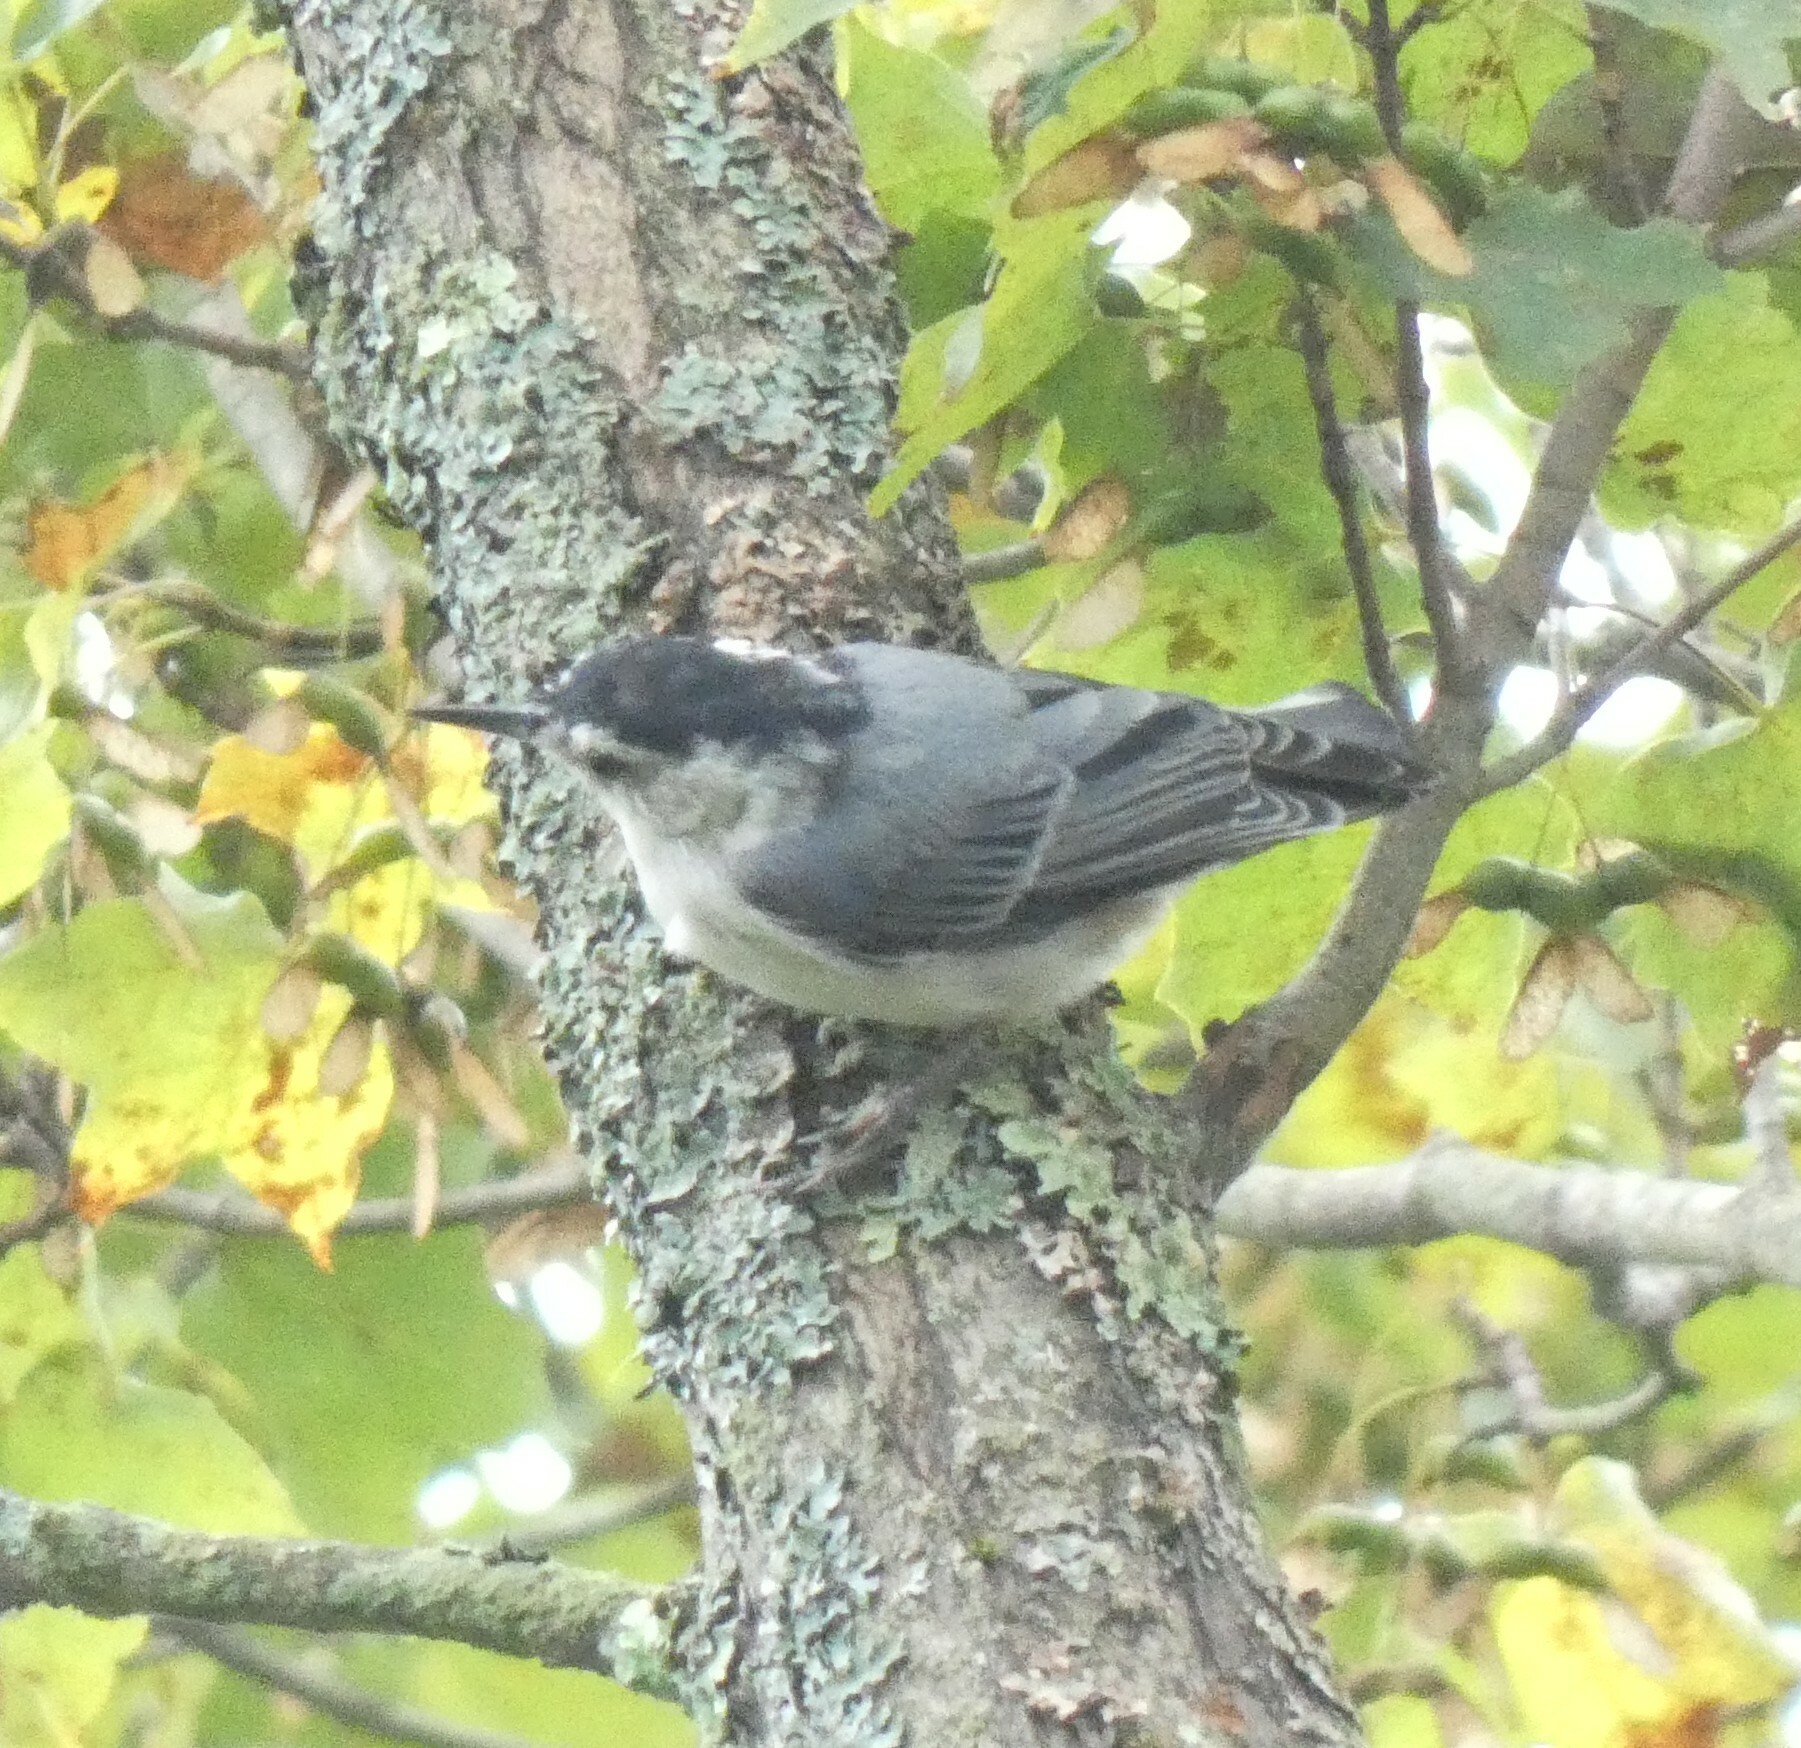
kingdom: Animalia
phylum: Chordata
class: Aves
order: Passeriformes
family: Sittidae
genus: Sitta
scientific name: Sitta carolinensis
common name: White-breasted nuthatch
